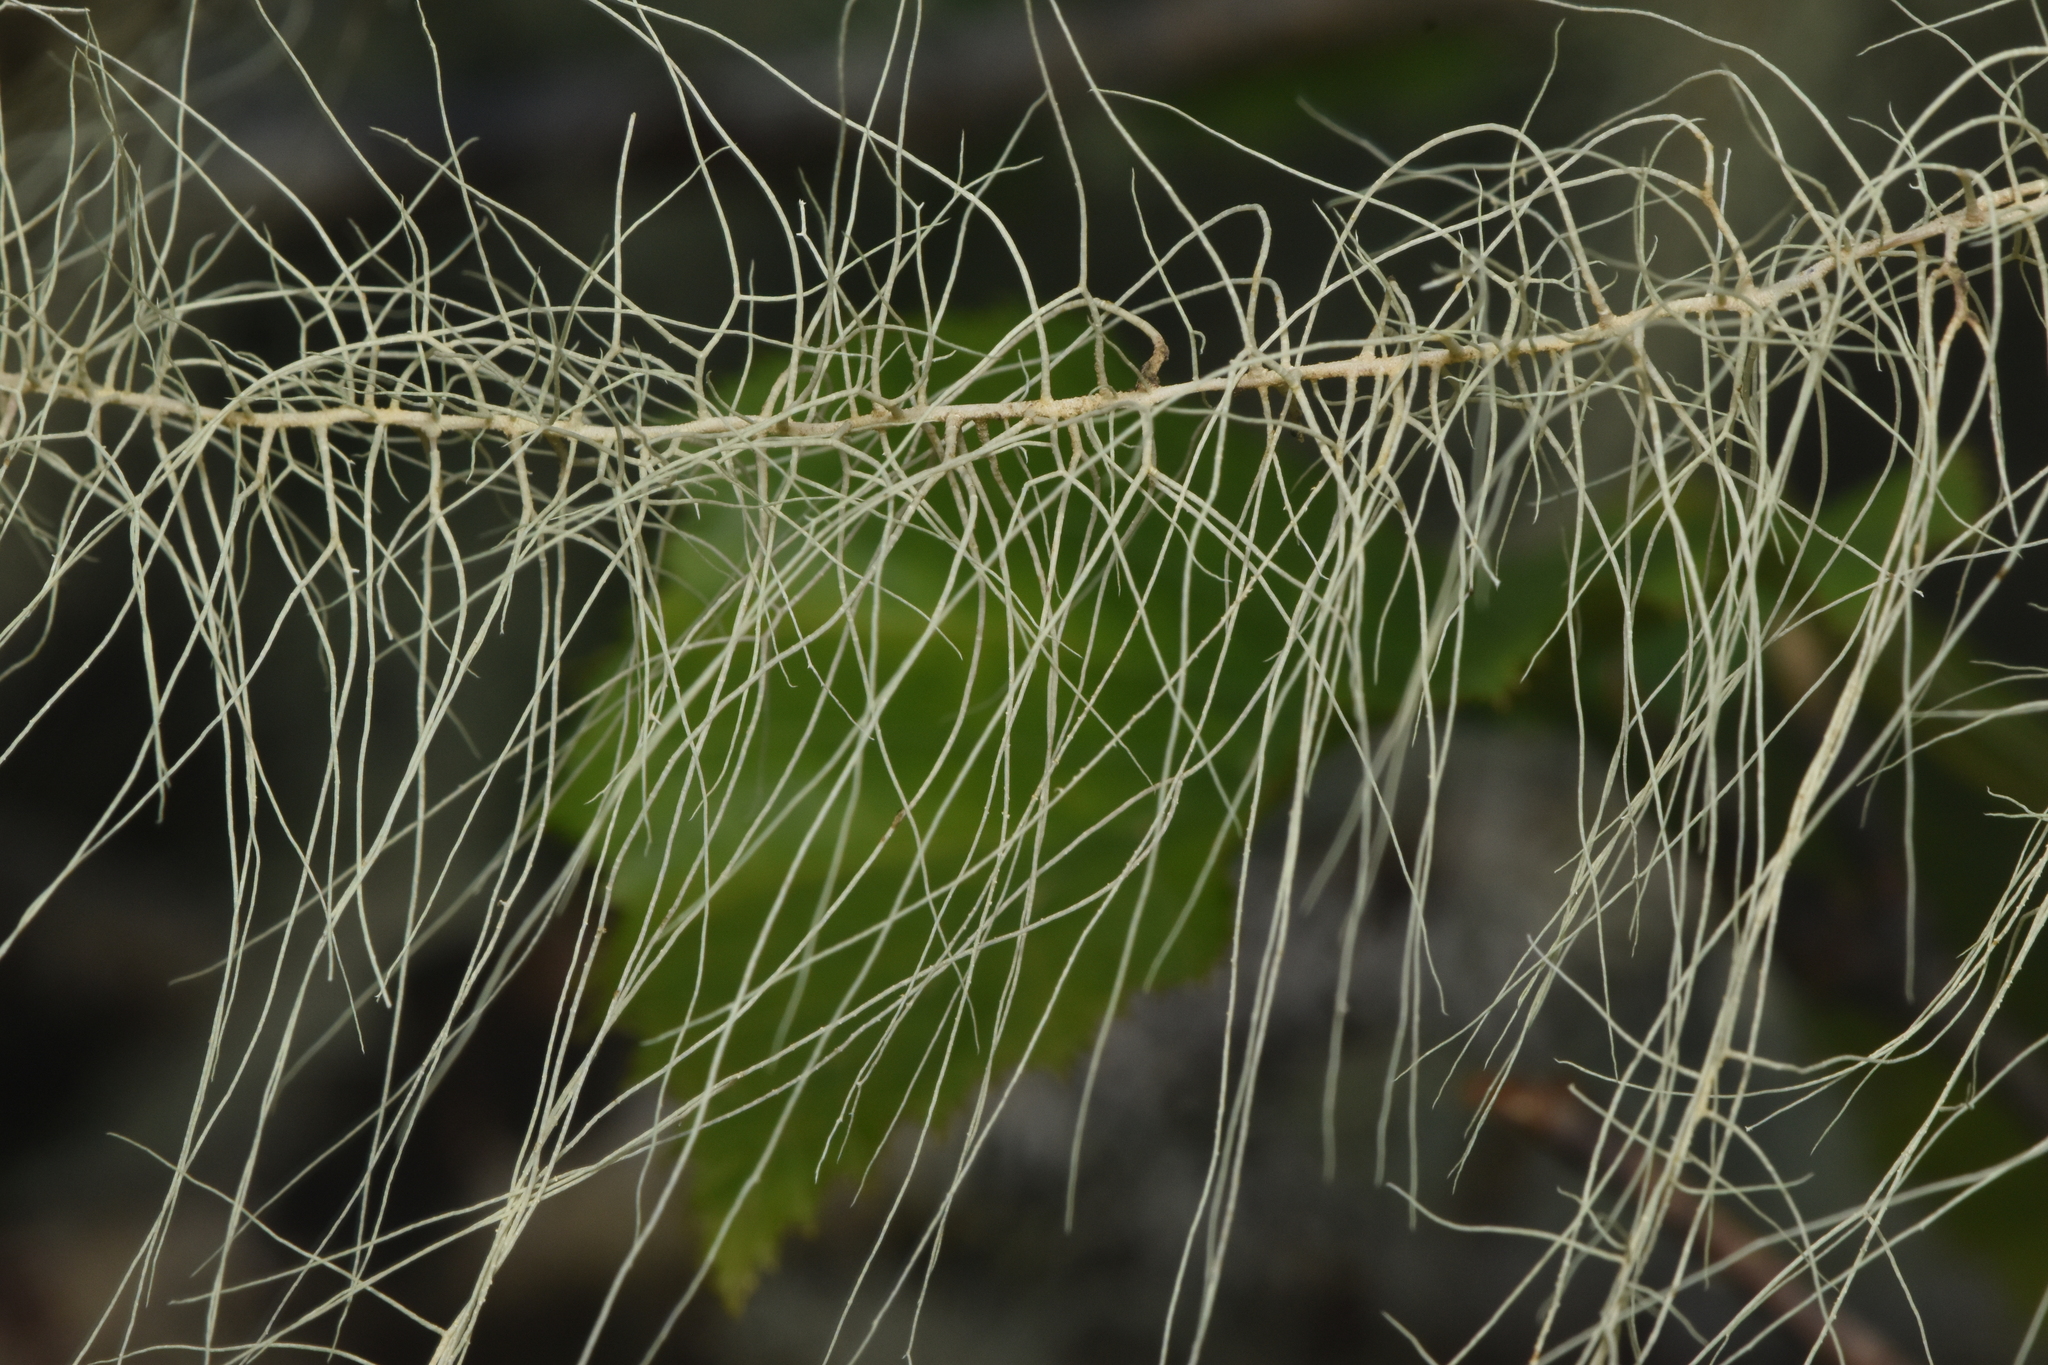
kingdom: Fungi
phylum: Ascomycota
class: Lecanoromycetes
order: Lecanorales
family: Parmeliaceae
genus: Dolichousnea
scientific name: Dolichousnea longissima
